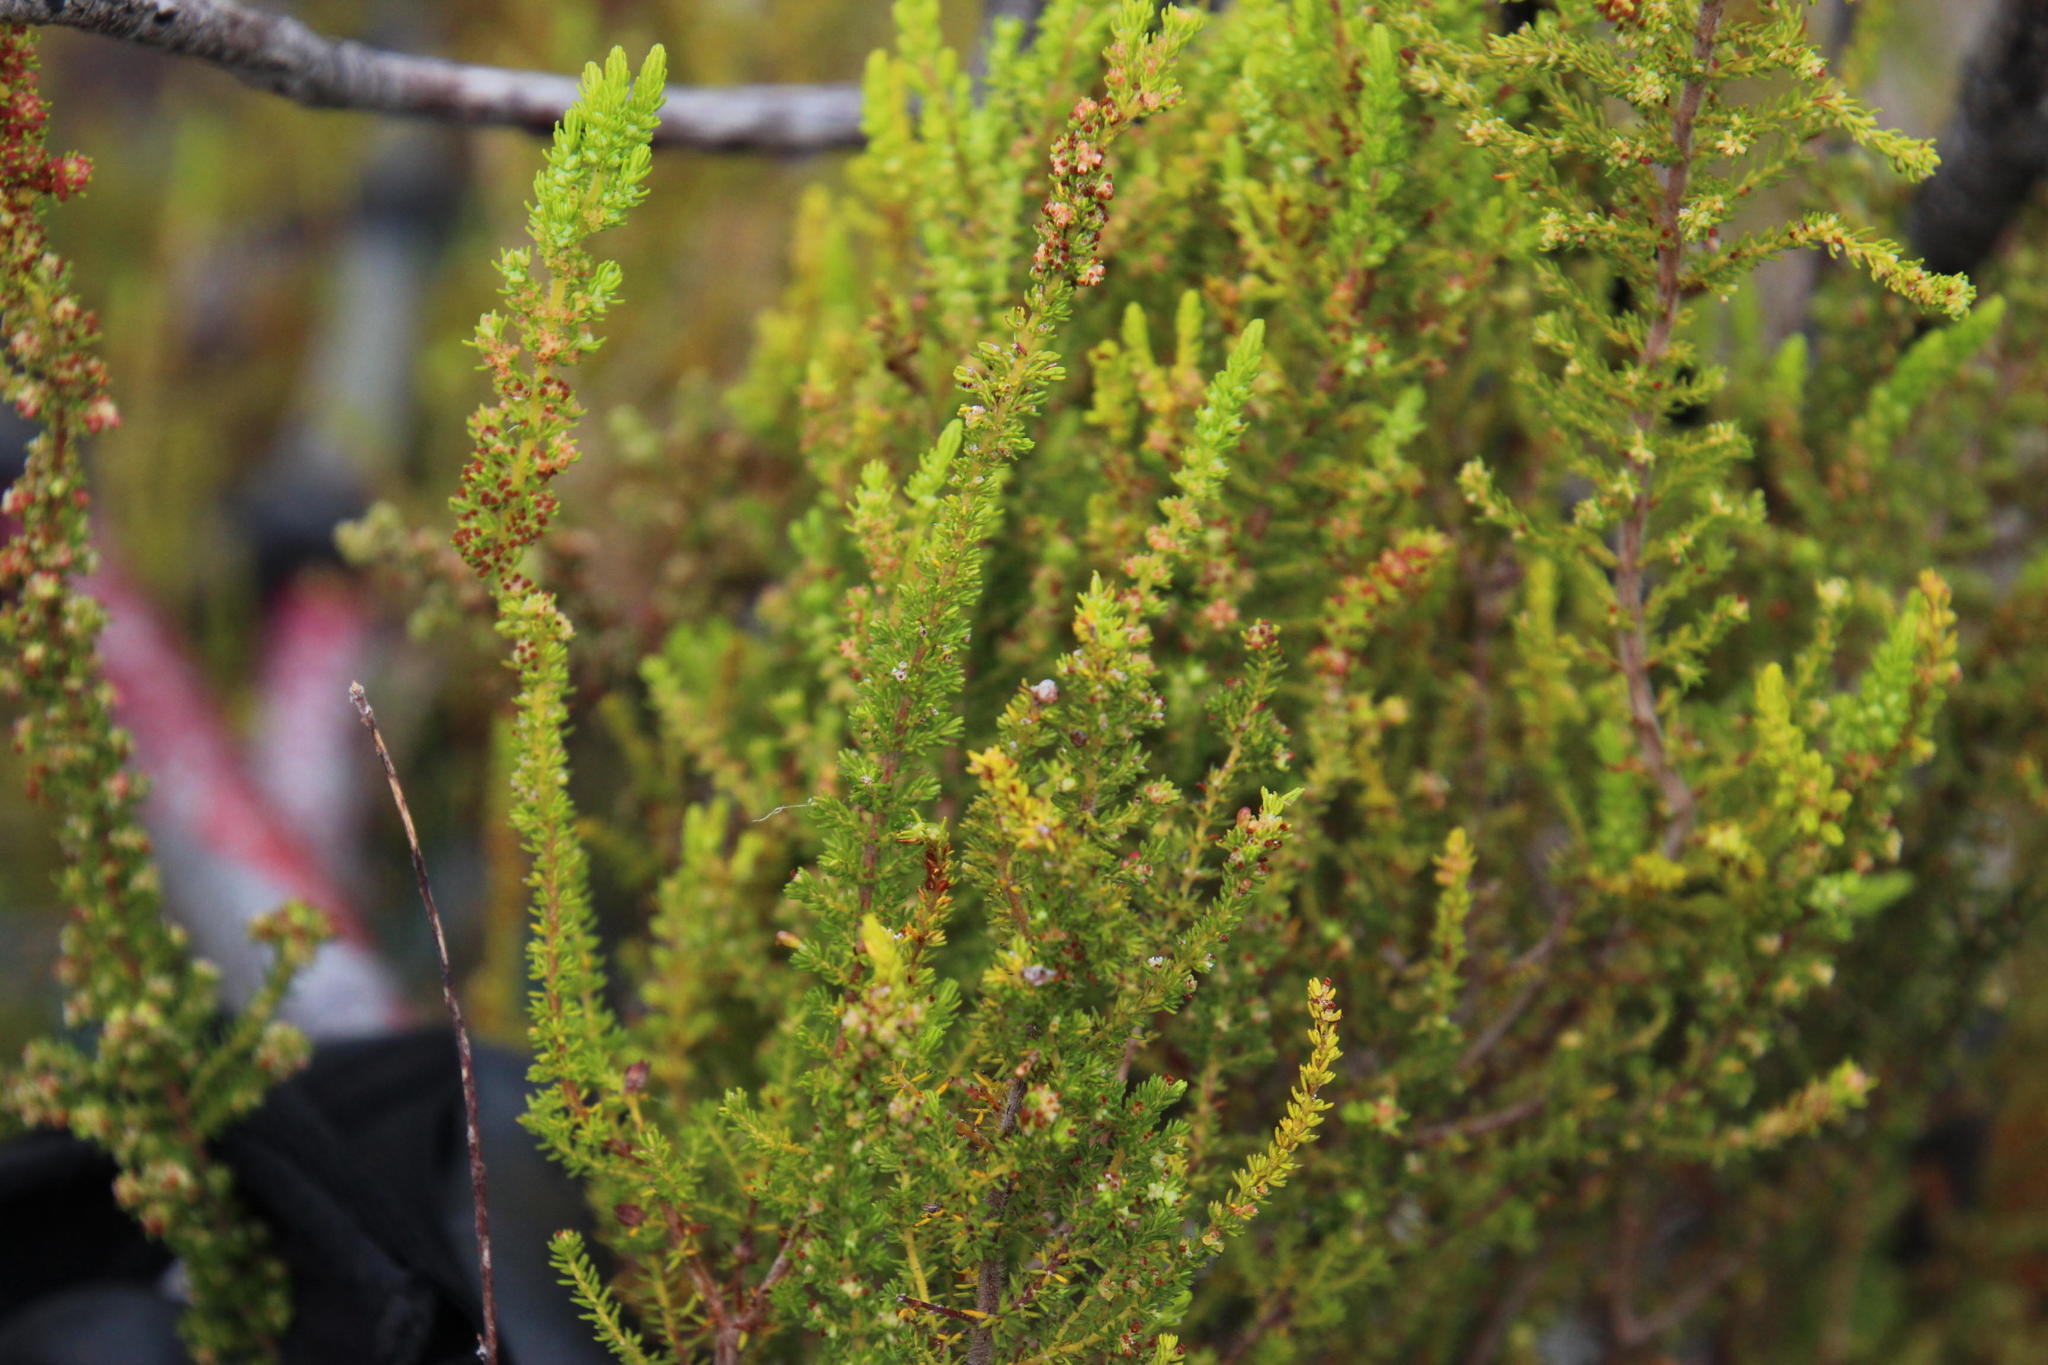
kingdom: Plantae
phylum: Tracheophyta
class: Magnoliopsida
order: Ericales
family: Ericaceae
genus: Erica
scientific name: Erica muscosa
